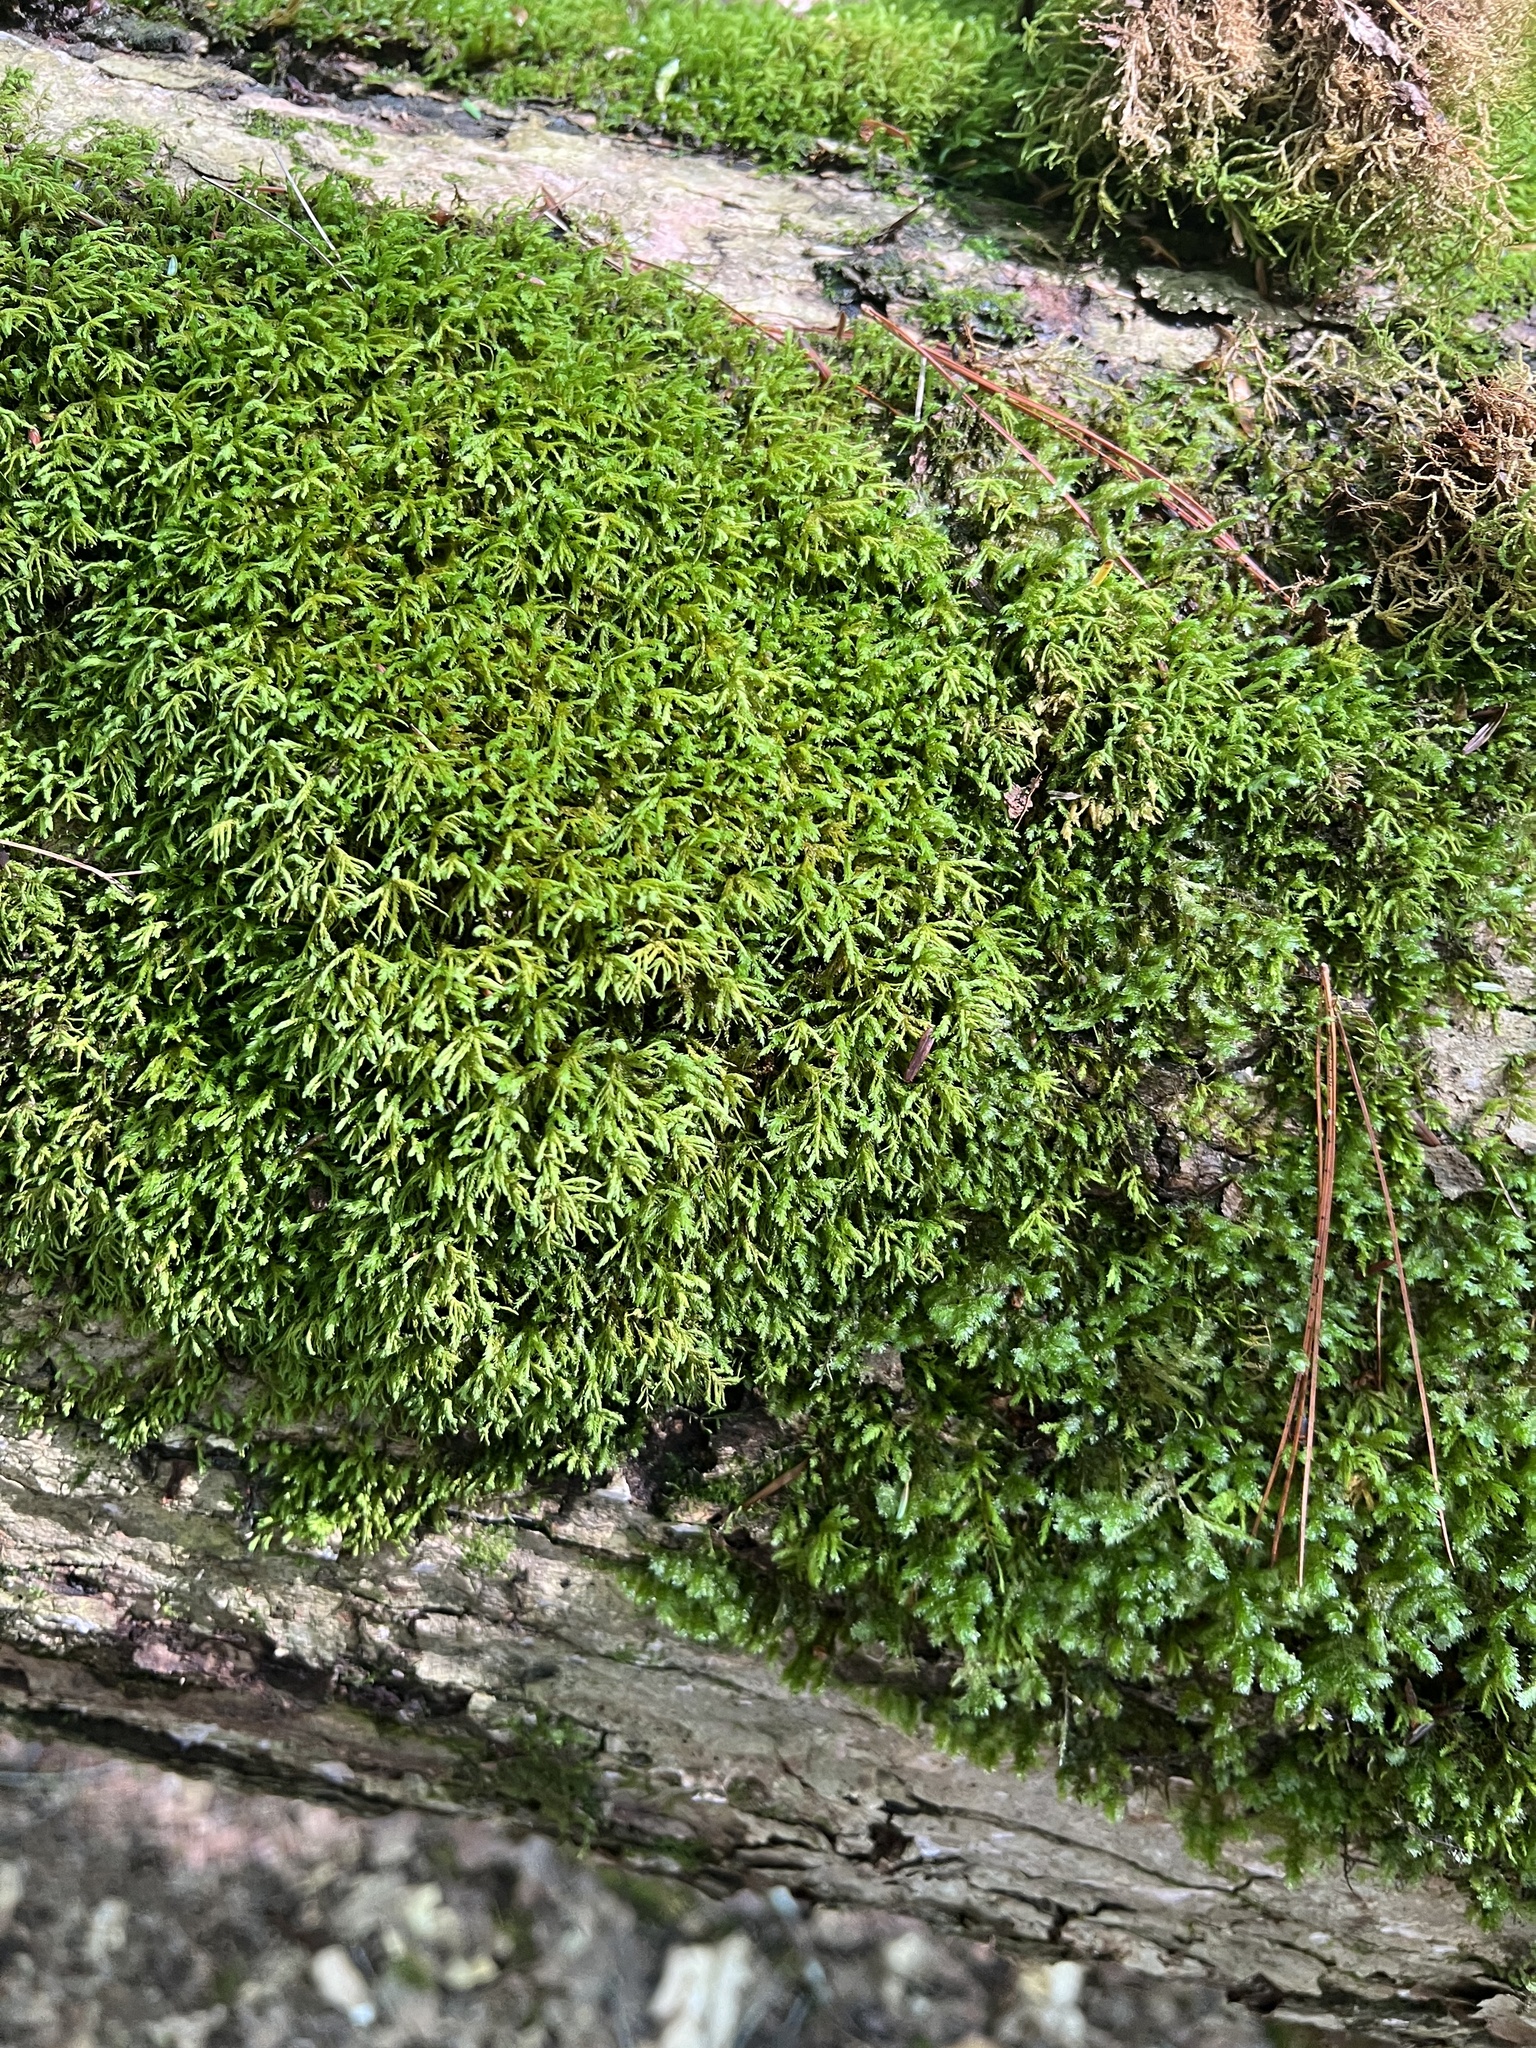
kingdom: Plantae
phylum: Bryophyta
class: Bryopsida
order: Hypnales
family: Neckeraceae
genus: Pseudanomodon
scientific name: Pseudanomodon attenuatus
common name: Tree-skirt moss
